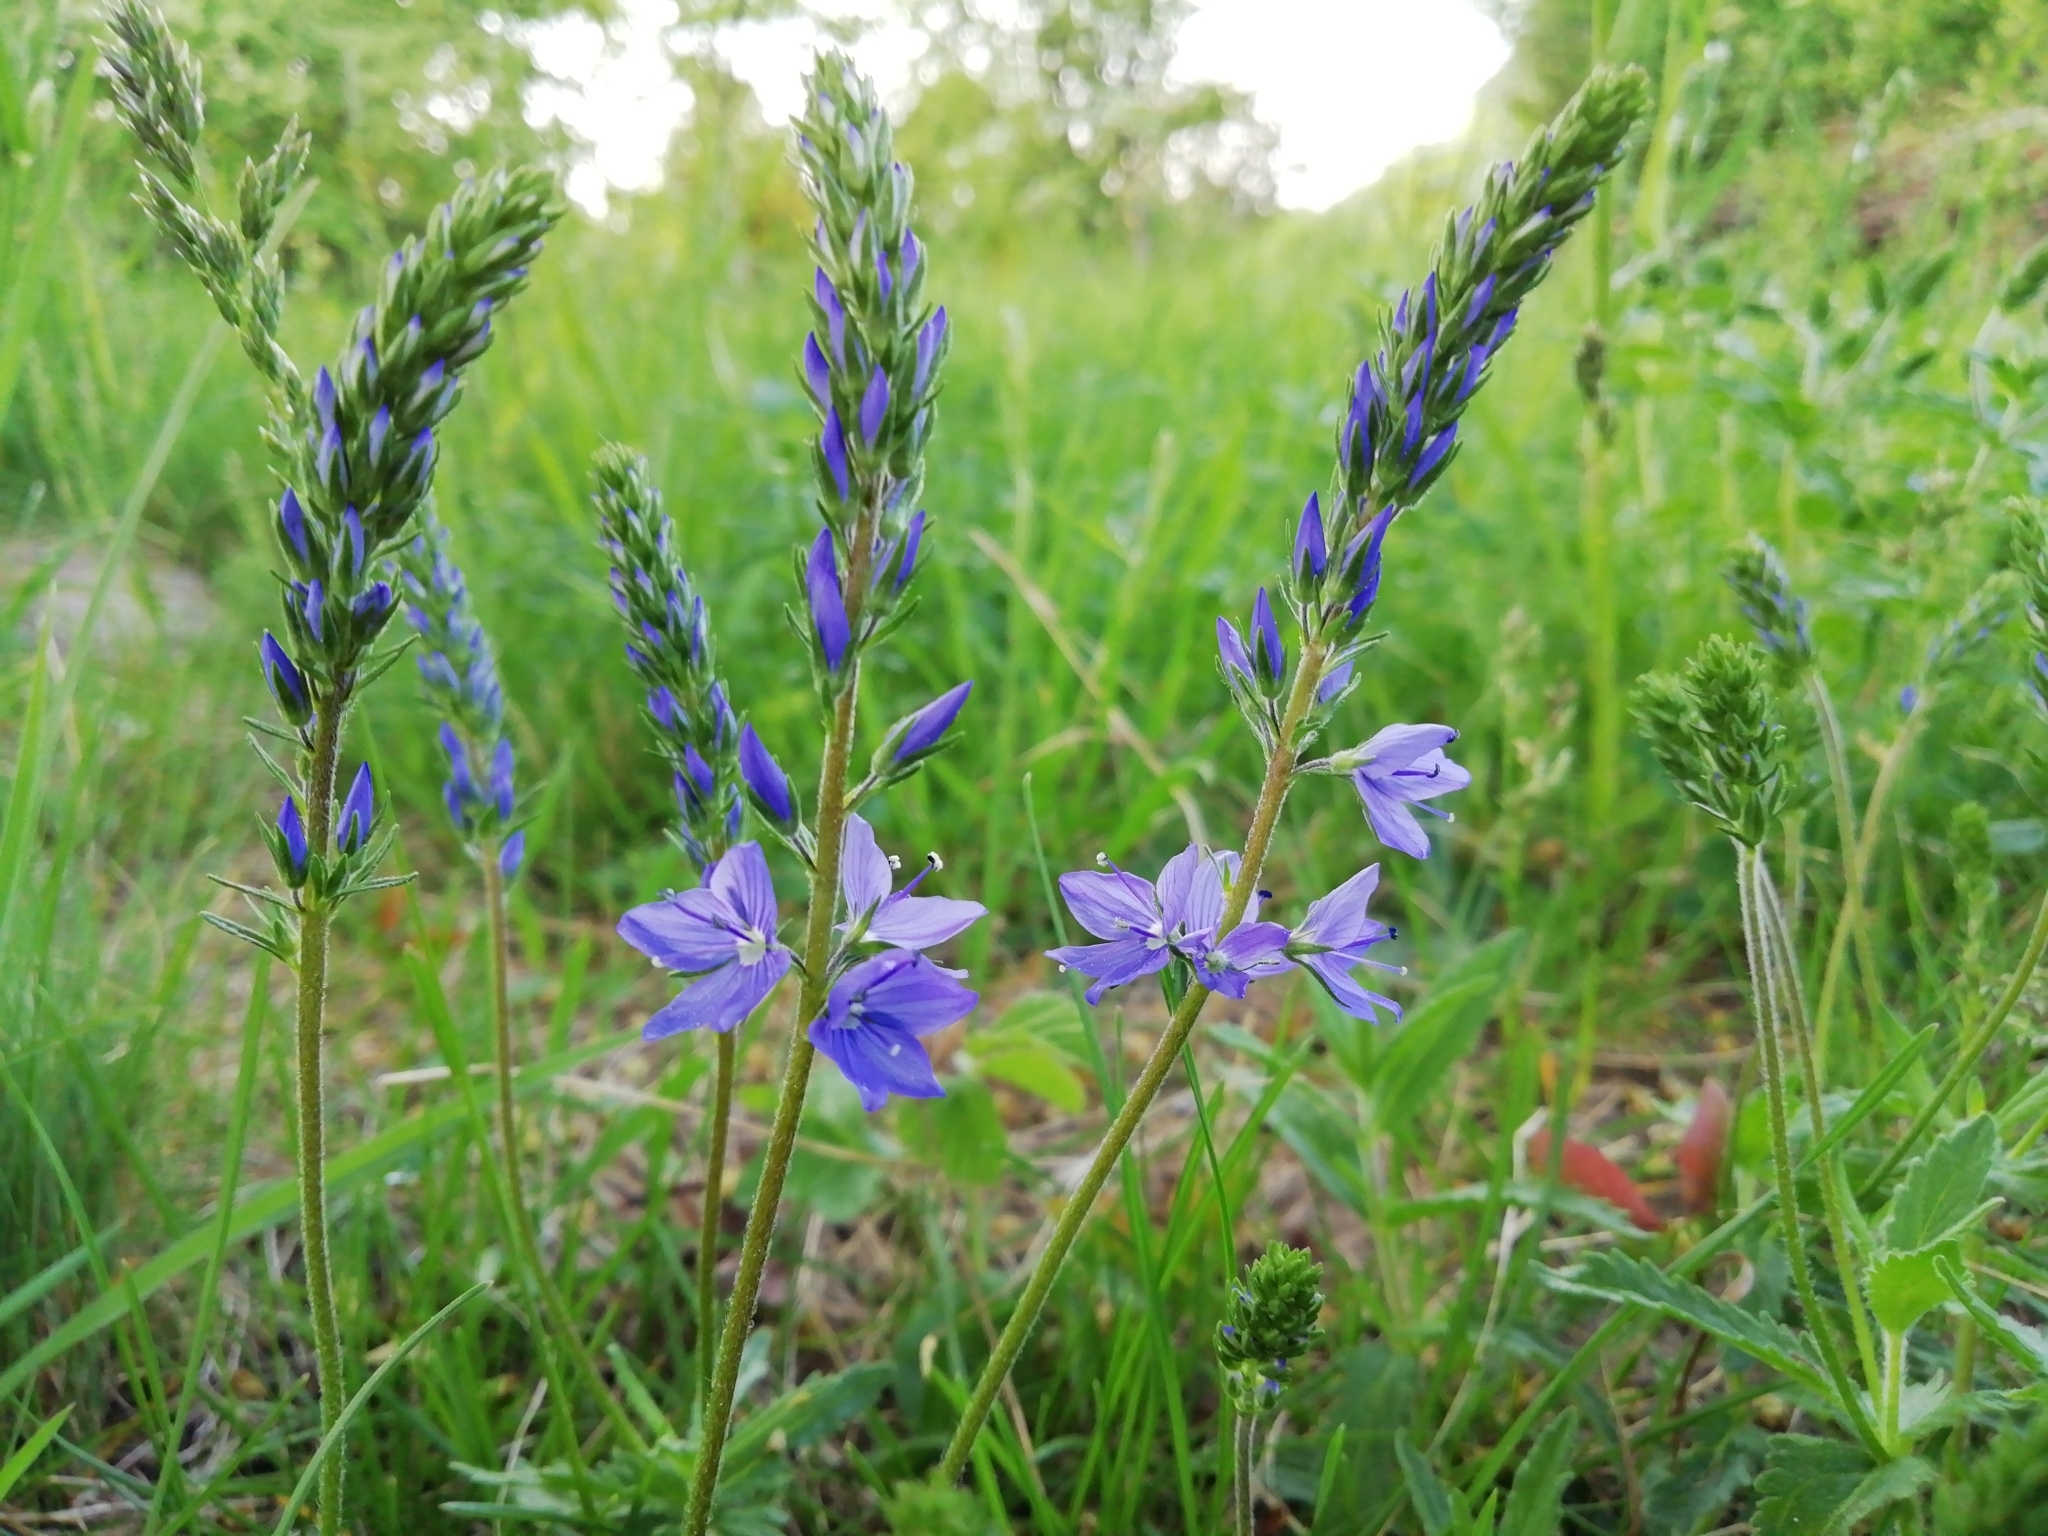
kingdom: Plantae
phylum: Tracheophyta
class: Magnoliopsida
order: Lamiales
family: Plantaginaceae
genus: Veronica
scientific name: Veronica teucrium
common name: Large speedwell
